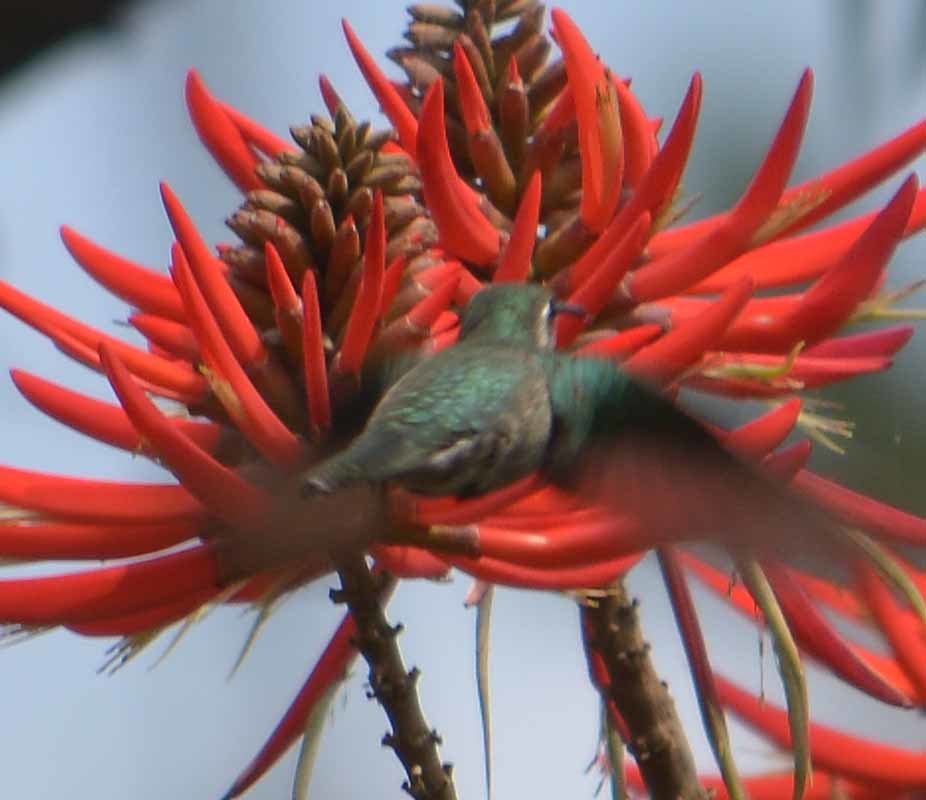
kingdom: Animalia
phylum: Chordata
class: Aves
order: Apodiformes
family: Trochilidae
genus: Cynanthus
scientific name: Cynanthus latirostris
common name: Broad-billed hummingbird
